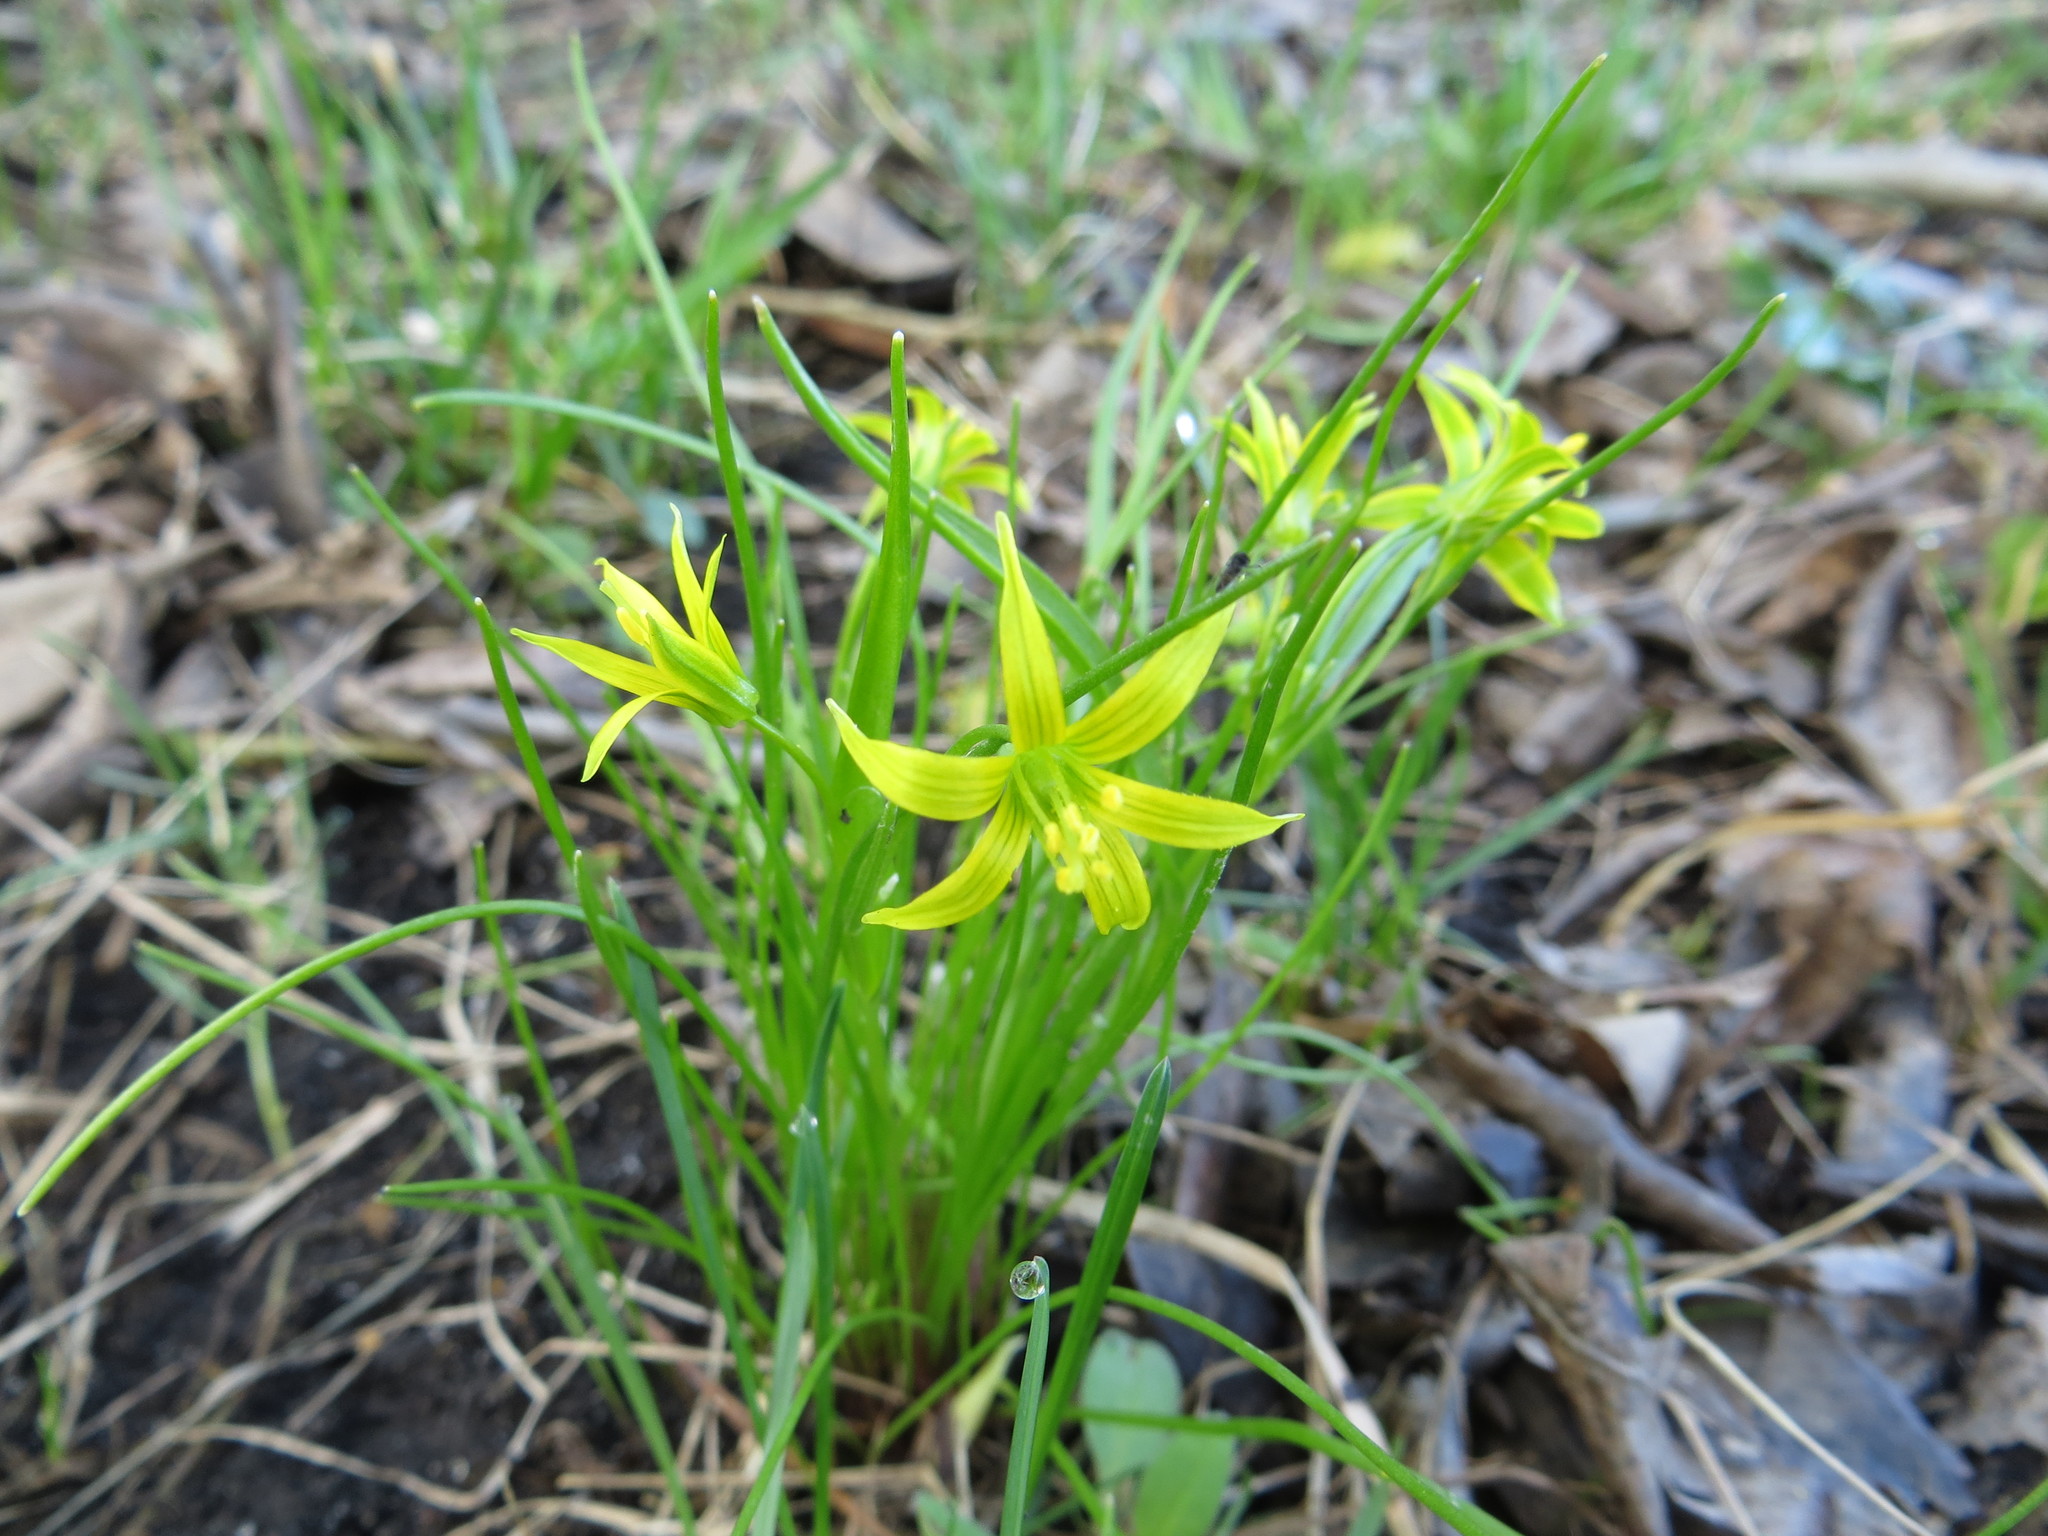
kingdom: Plantae
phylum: Tracheophyta
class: Liliopsida
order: Liliales
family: Liliaceae
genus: Gagea
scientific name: Gagea minima
